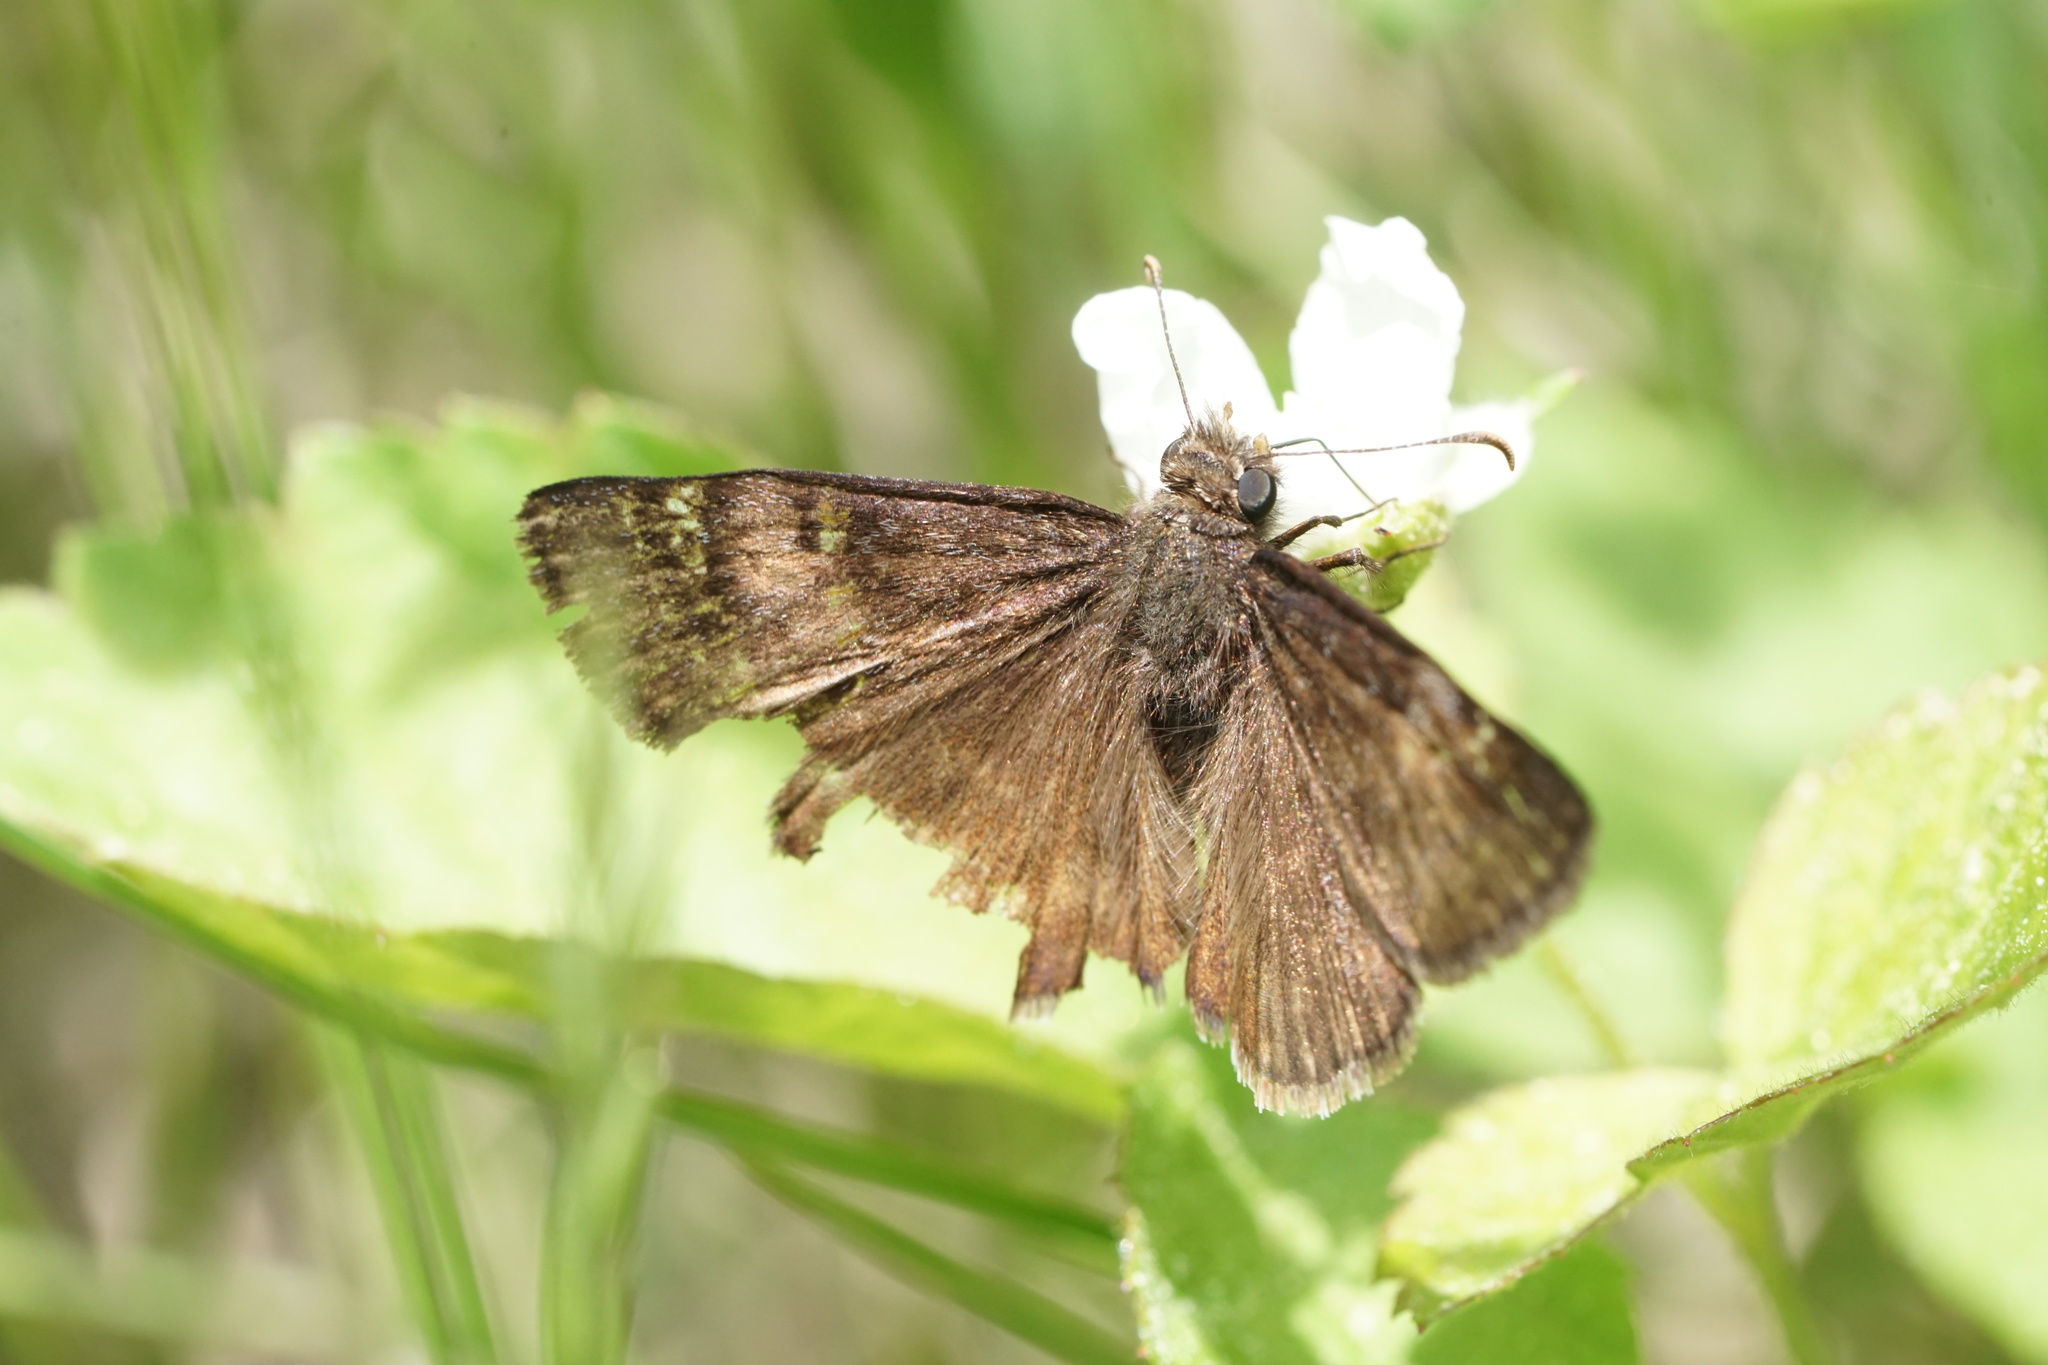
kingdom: Animalia
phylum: Arthropoda
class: Insecta
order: Lepidoptera
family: Hesperiidae
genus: Erynnis
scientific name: Erynnis baptisiae
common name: Wild indigo duskywing
